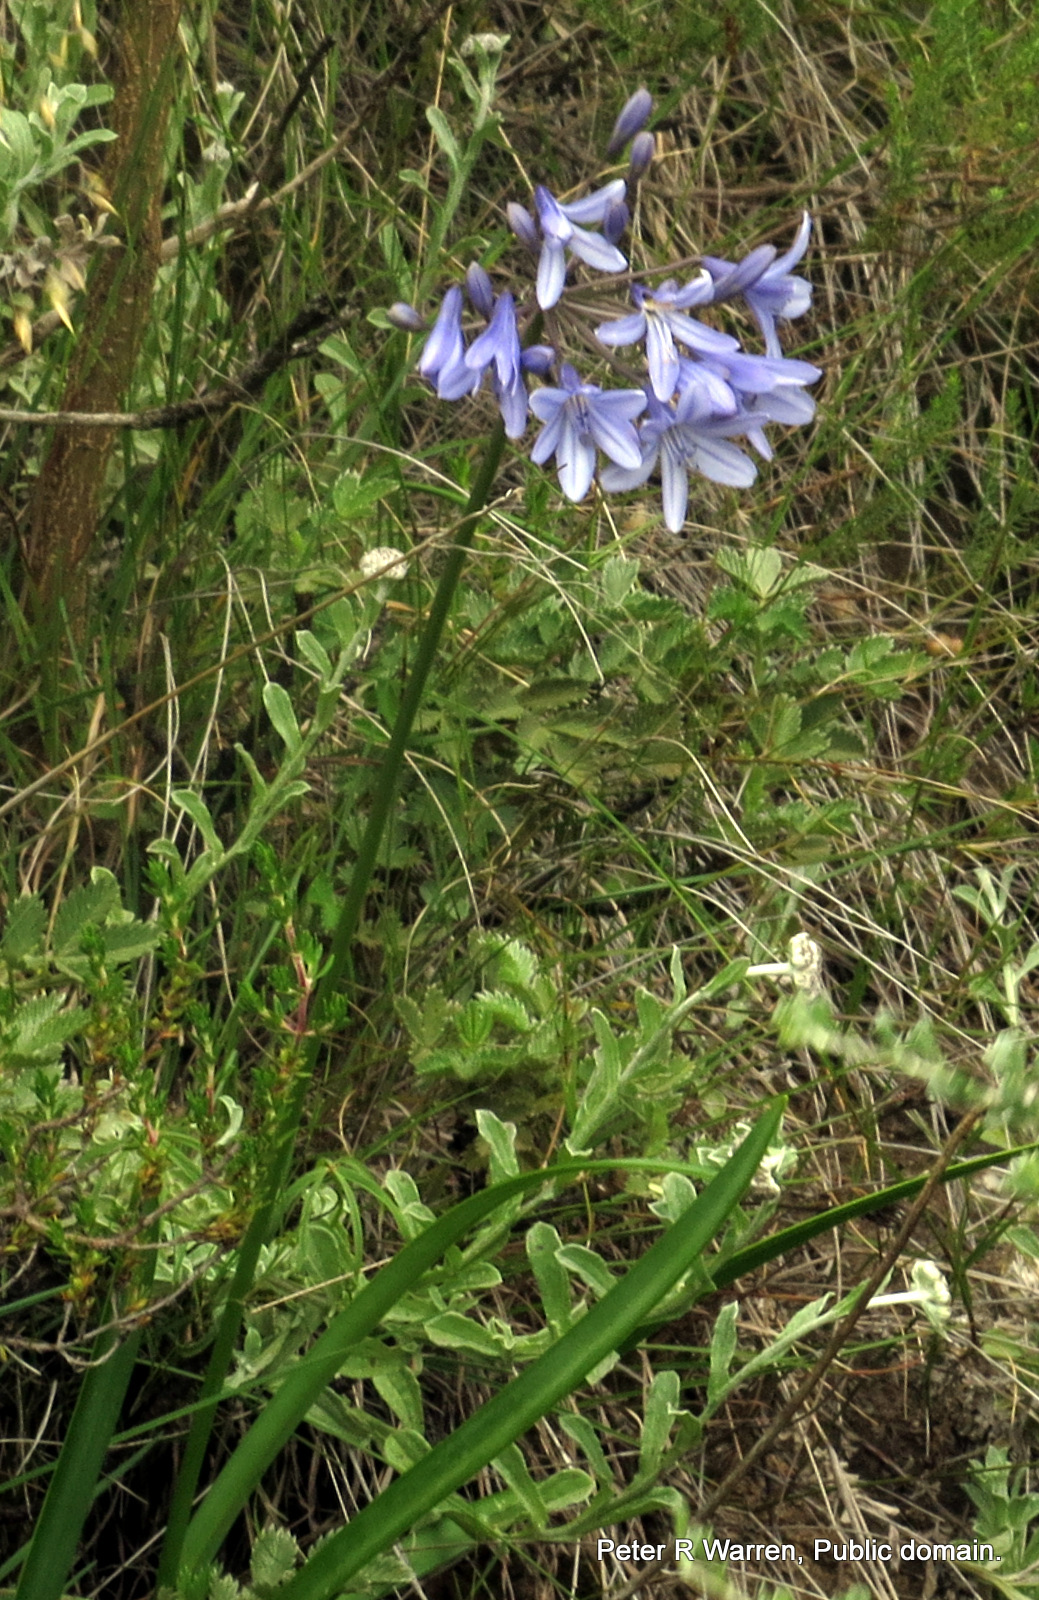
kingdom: Plantae
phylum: Tracheophyta
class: Liliopsida
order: Asparagales
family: Amaryllidaceae
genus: Agapanthus
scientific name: Agapanthus campanulatus
